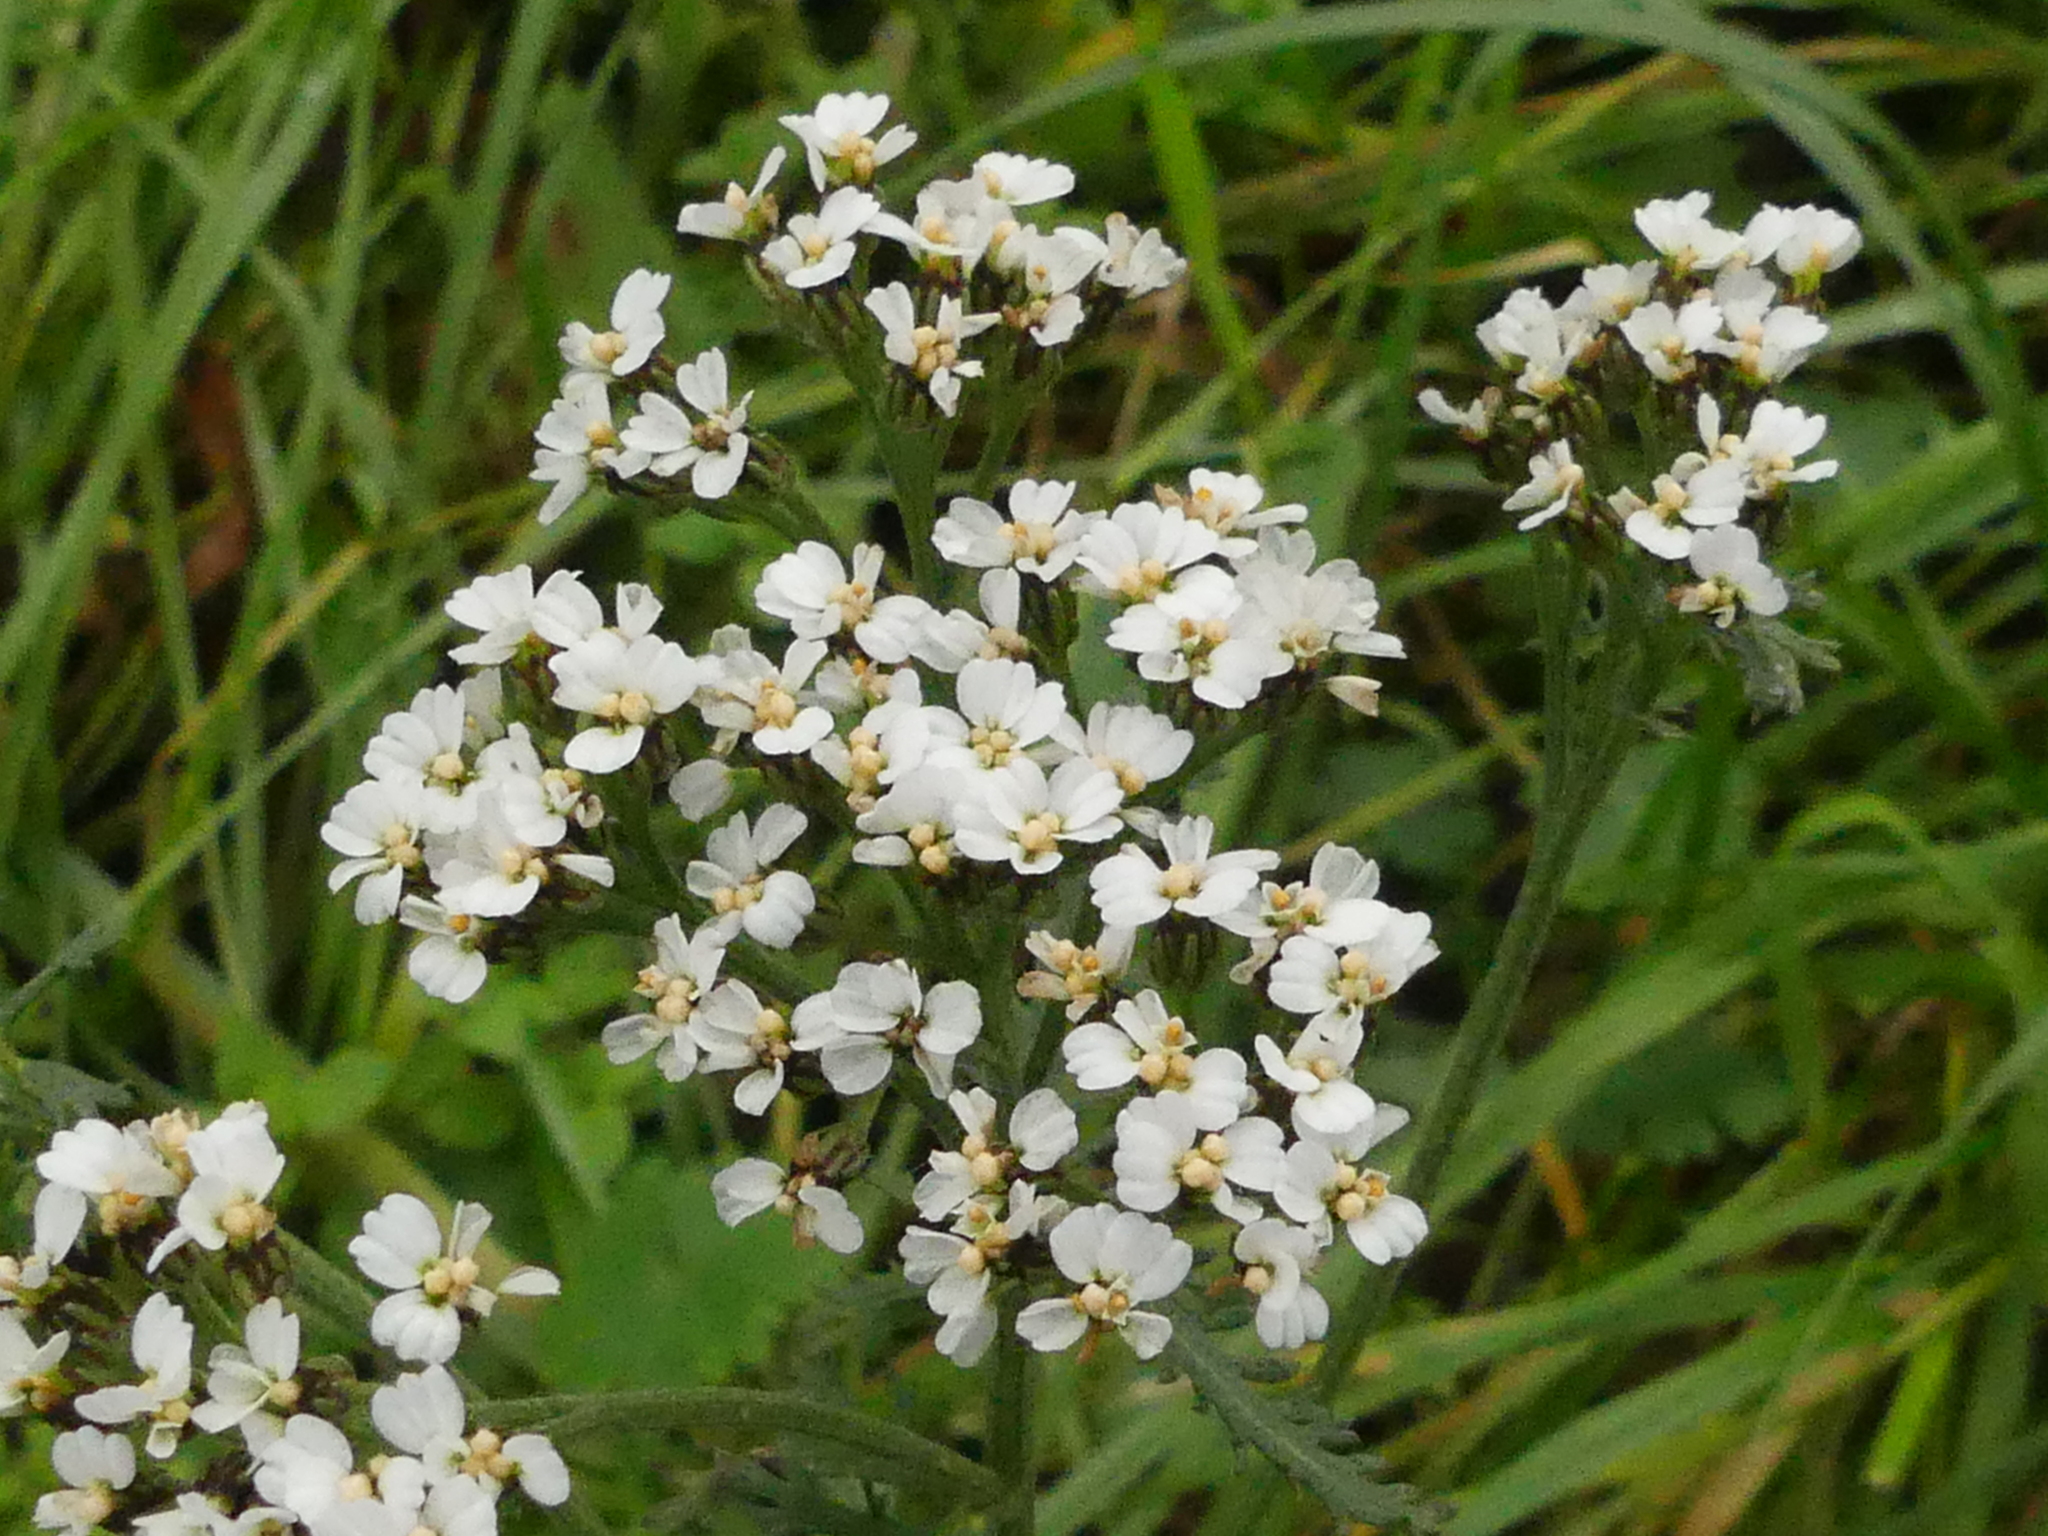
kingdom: Plantae
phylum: Tracheophyta
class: Magnoliopsida
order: Asterales
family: Asteraceae
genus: Achillea
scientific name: Achillea millefolium
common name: Yarrow
